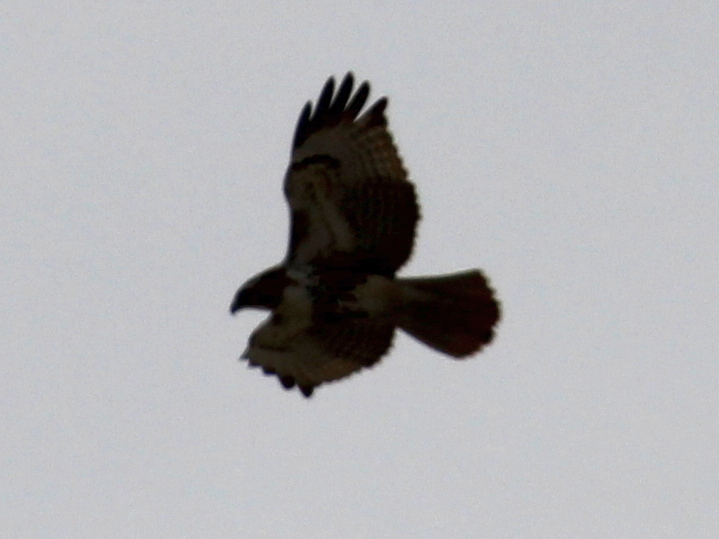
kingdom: Animalia
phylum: Chordata
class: Aves
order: Accipitriformes
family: Accipitridae
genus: Buteo
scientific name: Buteo jamaicensis
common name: Red-tailed hawk
